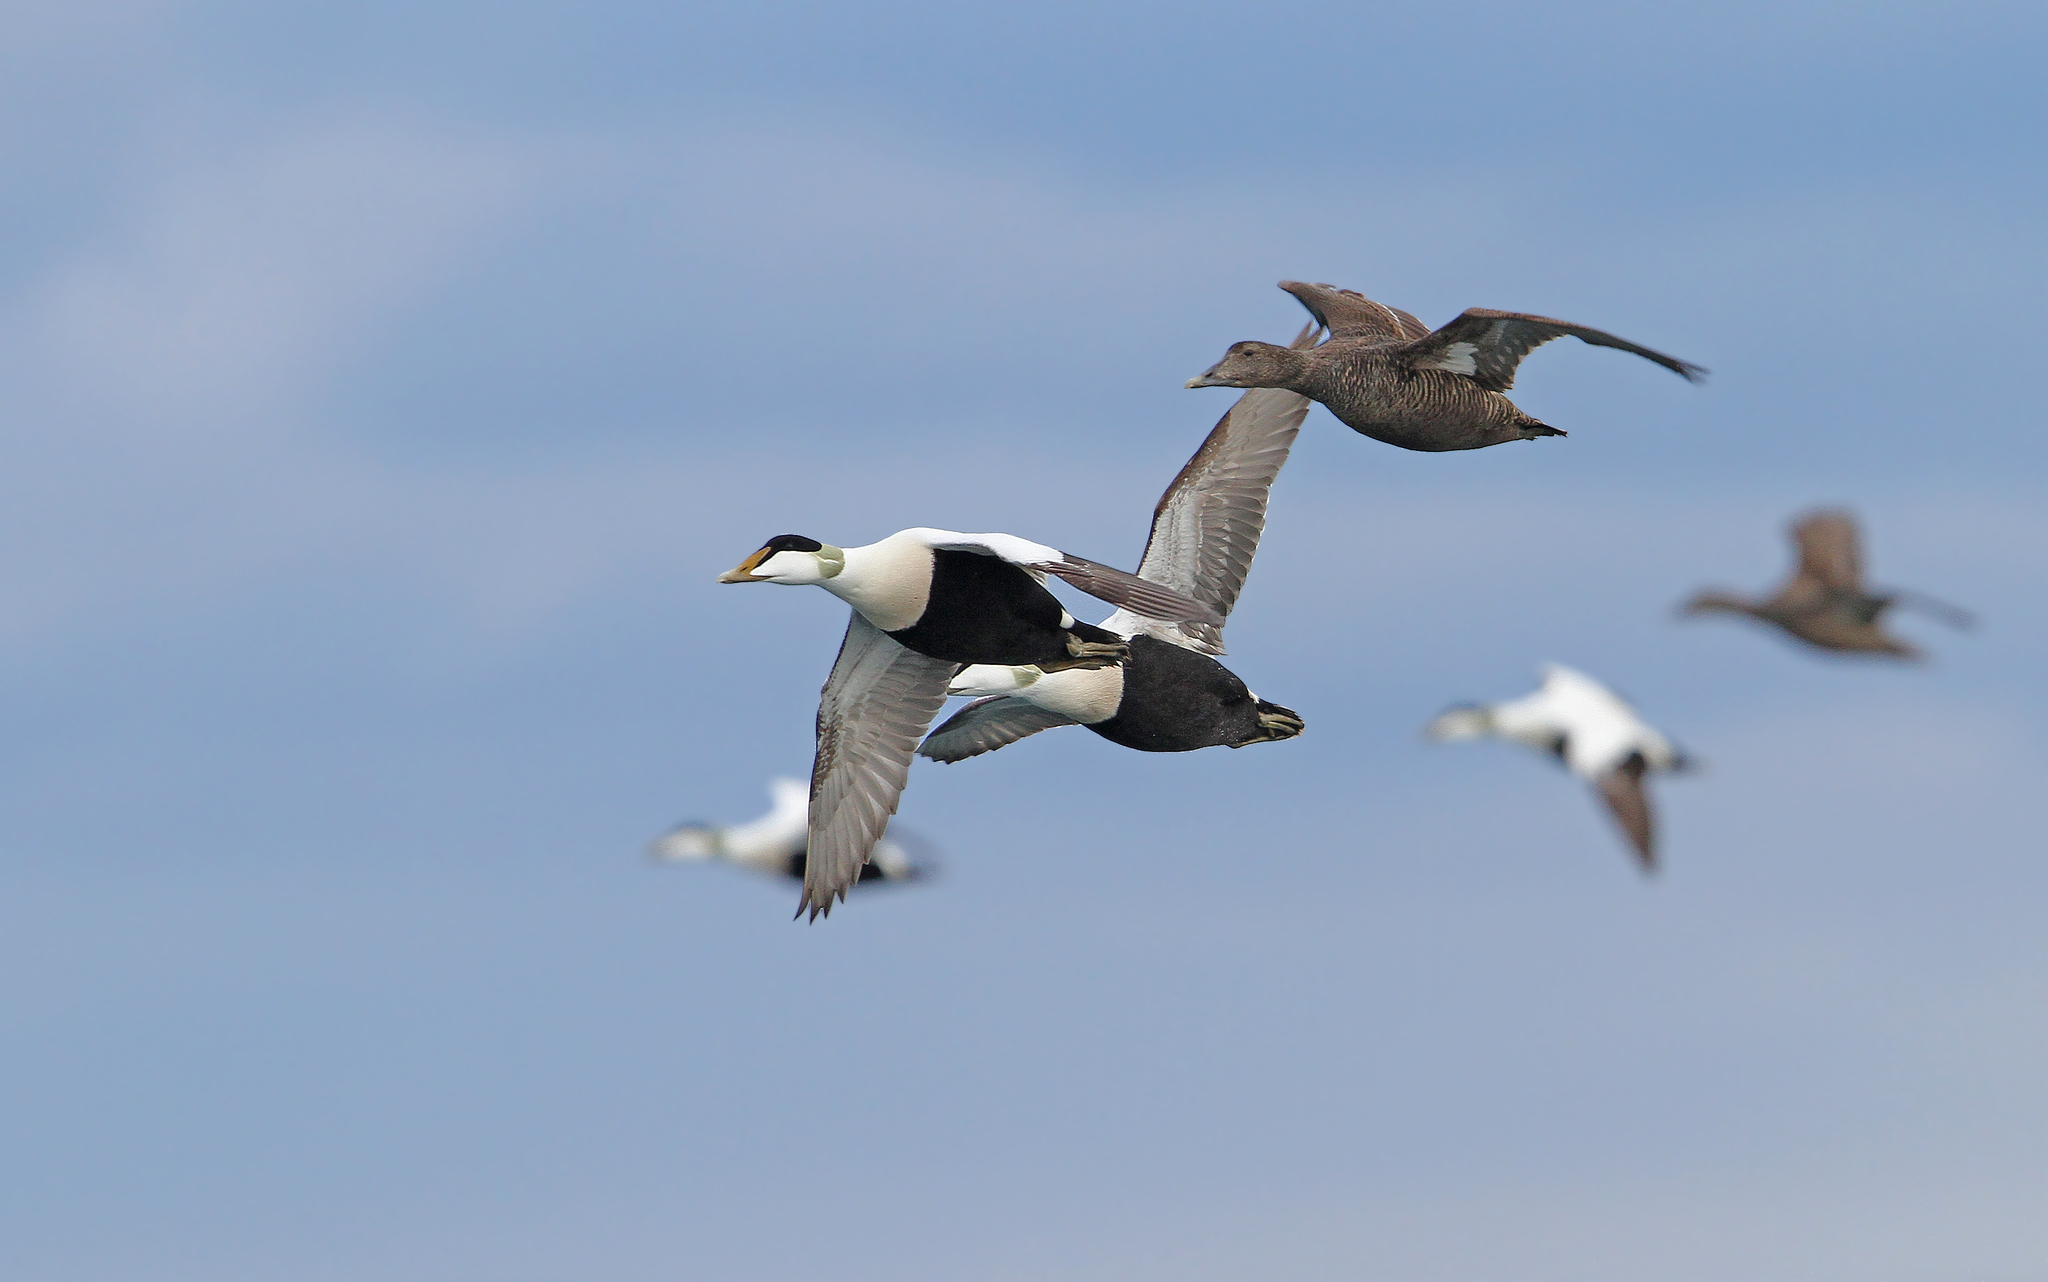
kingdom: Animalia
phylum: Chordata
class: Aves
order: Anseriformes
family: Anatidae
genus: Somateria
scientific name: Somateria mollissima
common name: Common eider
